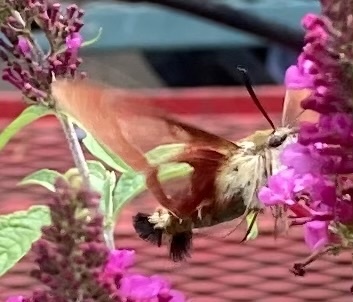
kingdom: Animalia
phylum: Arthropoda
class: Insecta
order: Lepidoptera
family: Sphingidae
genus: Hemaris
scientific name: Hemaris thysbe
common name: Common clear-wing
